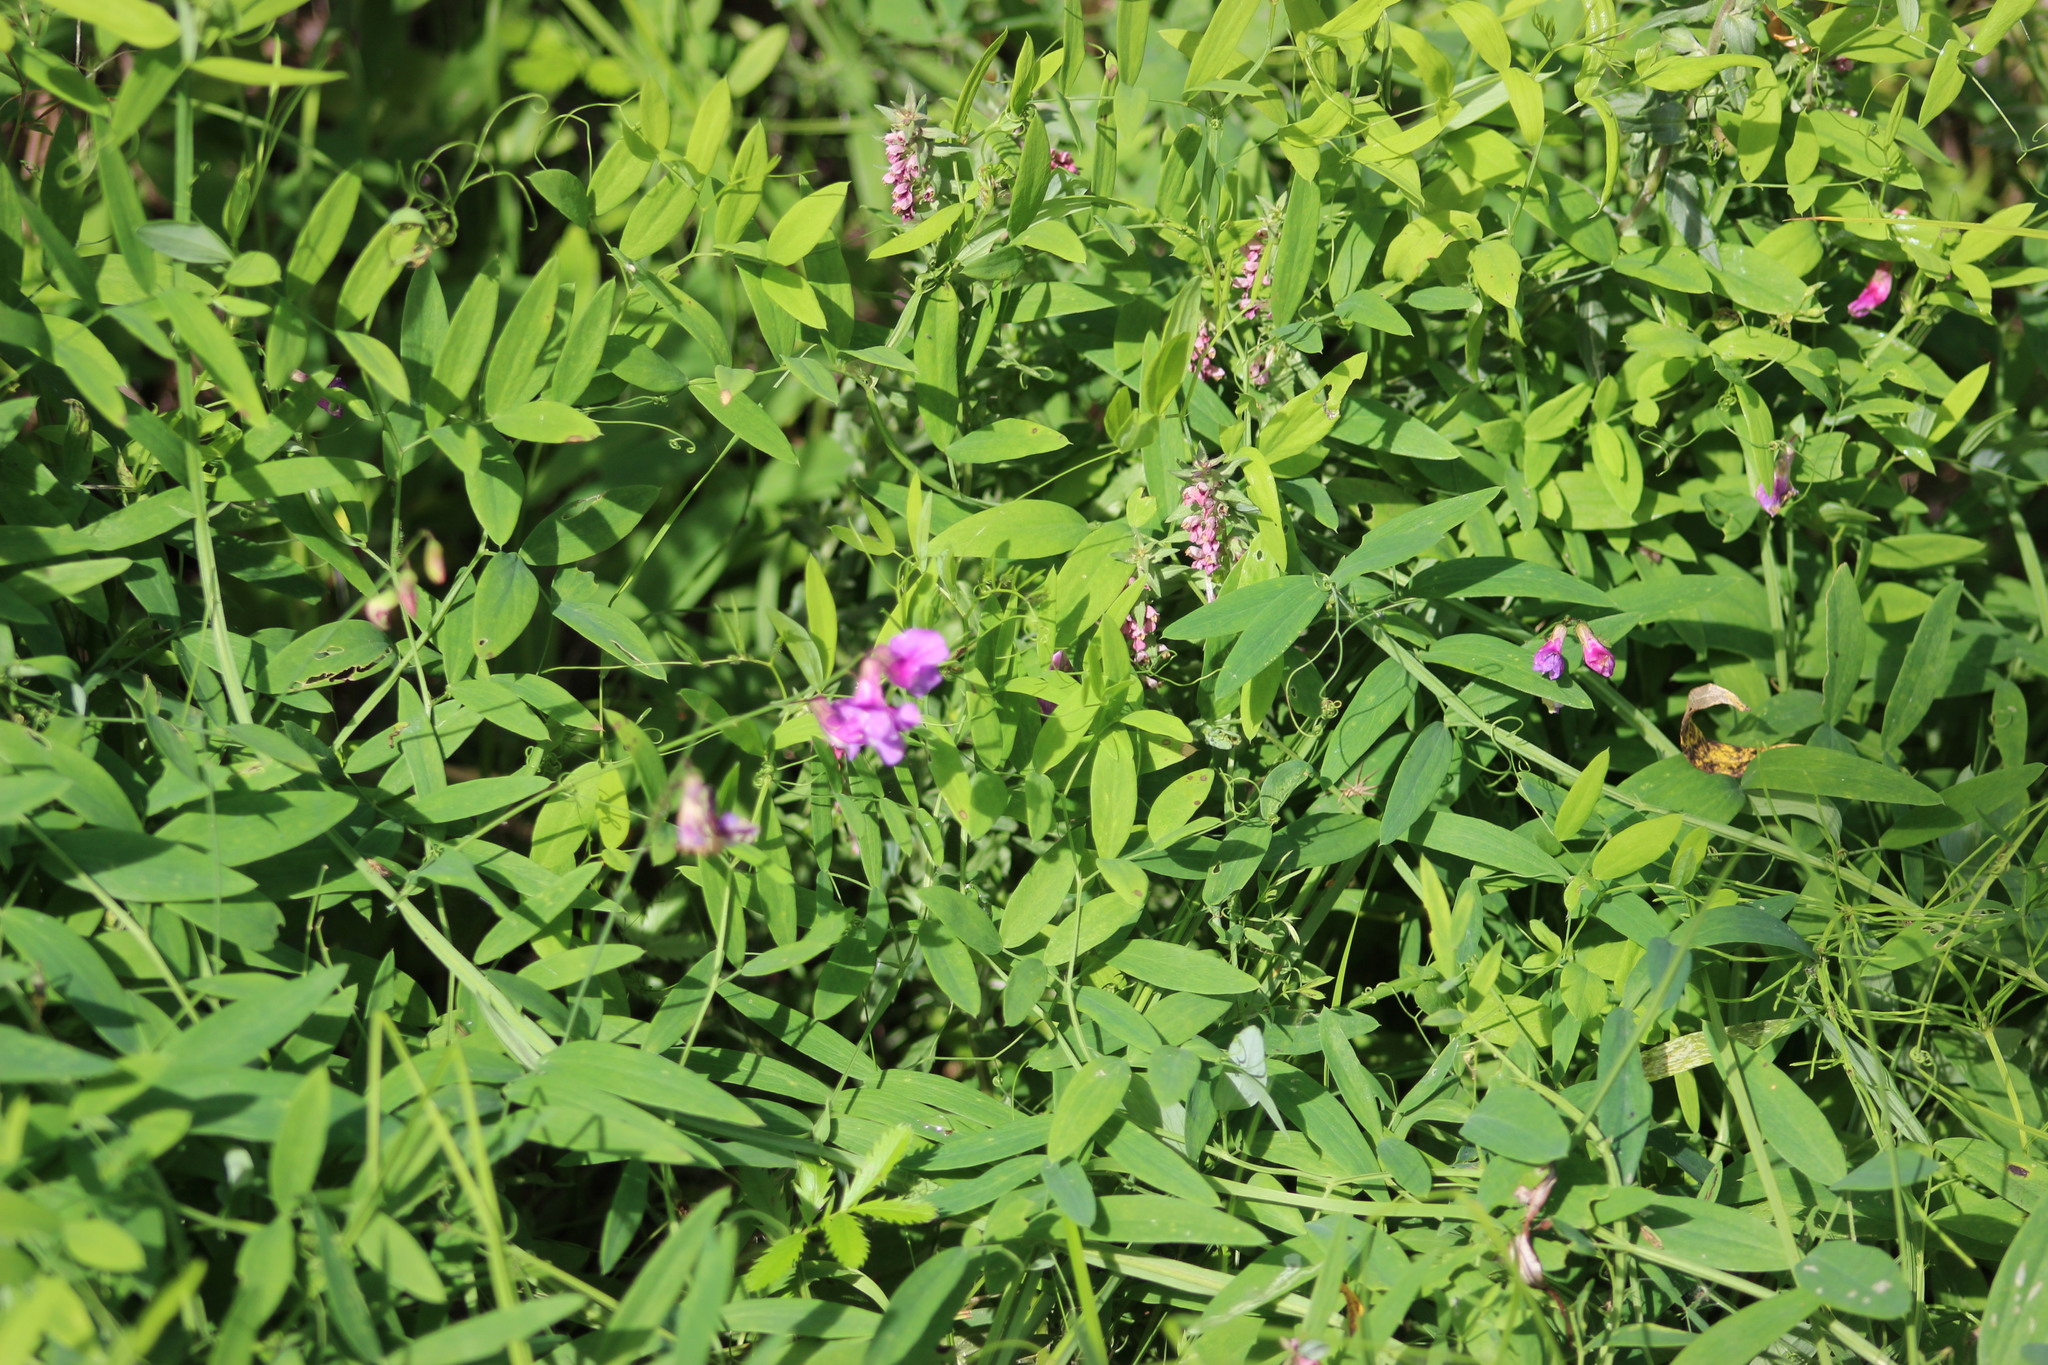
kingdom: Plantae
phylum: Tracheophyta
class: Magnoliopsida
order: Fabales
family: Fabaceae
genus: Lathyrus
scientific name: Lathyrus palustris
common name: Marsh pea
